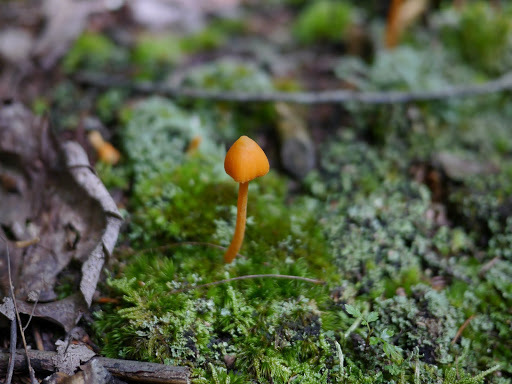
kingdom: Fungi
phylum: Basidiomycota
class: Agaricomycetes
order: Agaricales
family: Entolomataceae
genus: Entoloma
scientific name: Entoloma salmoneum
